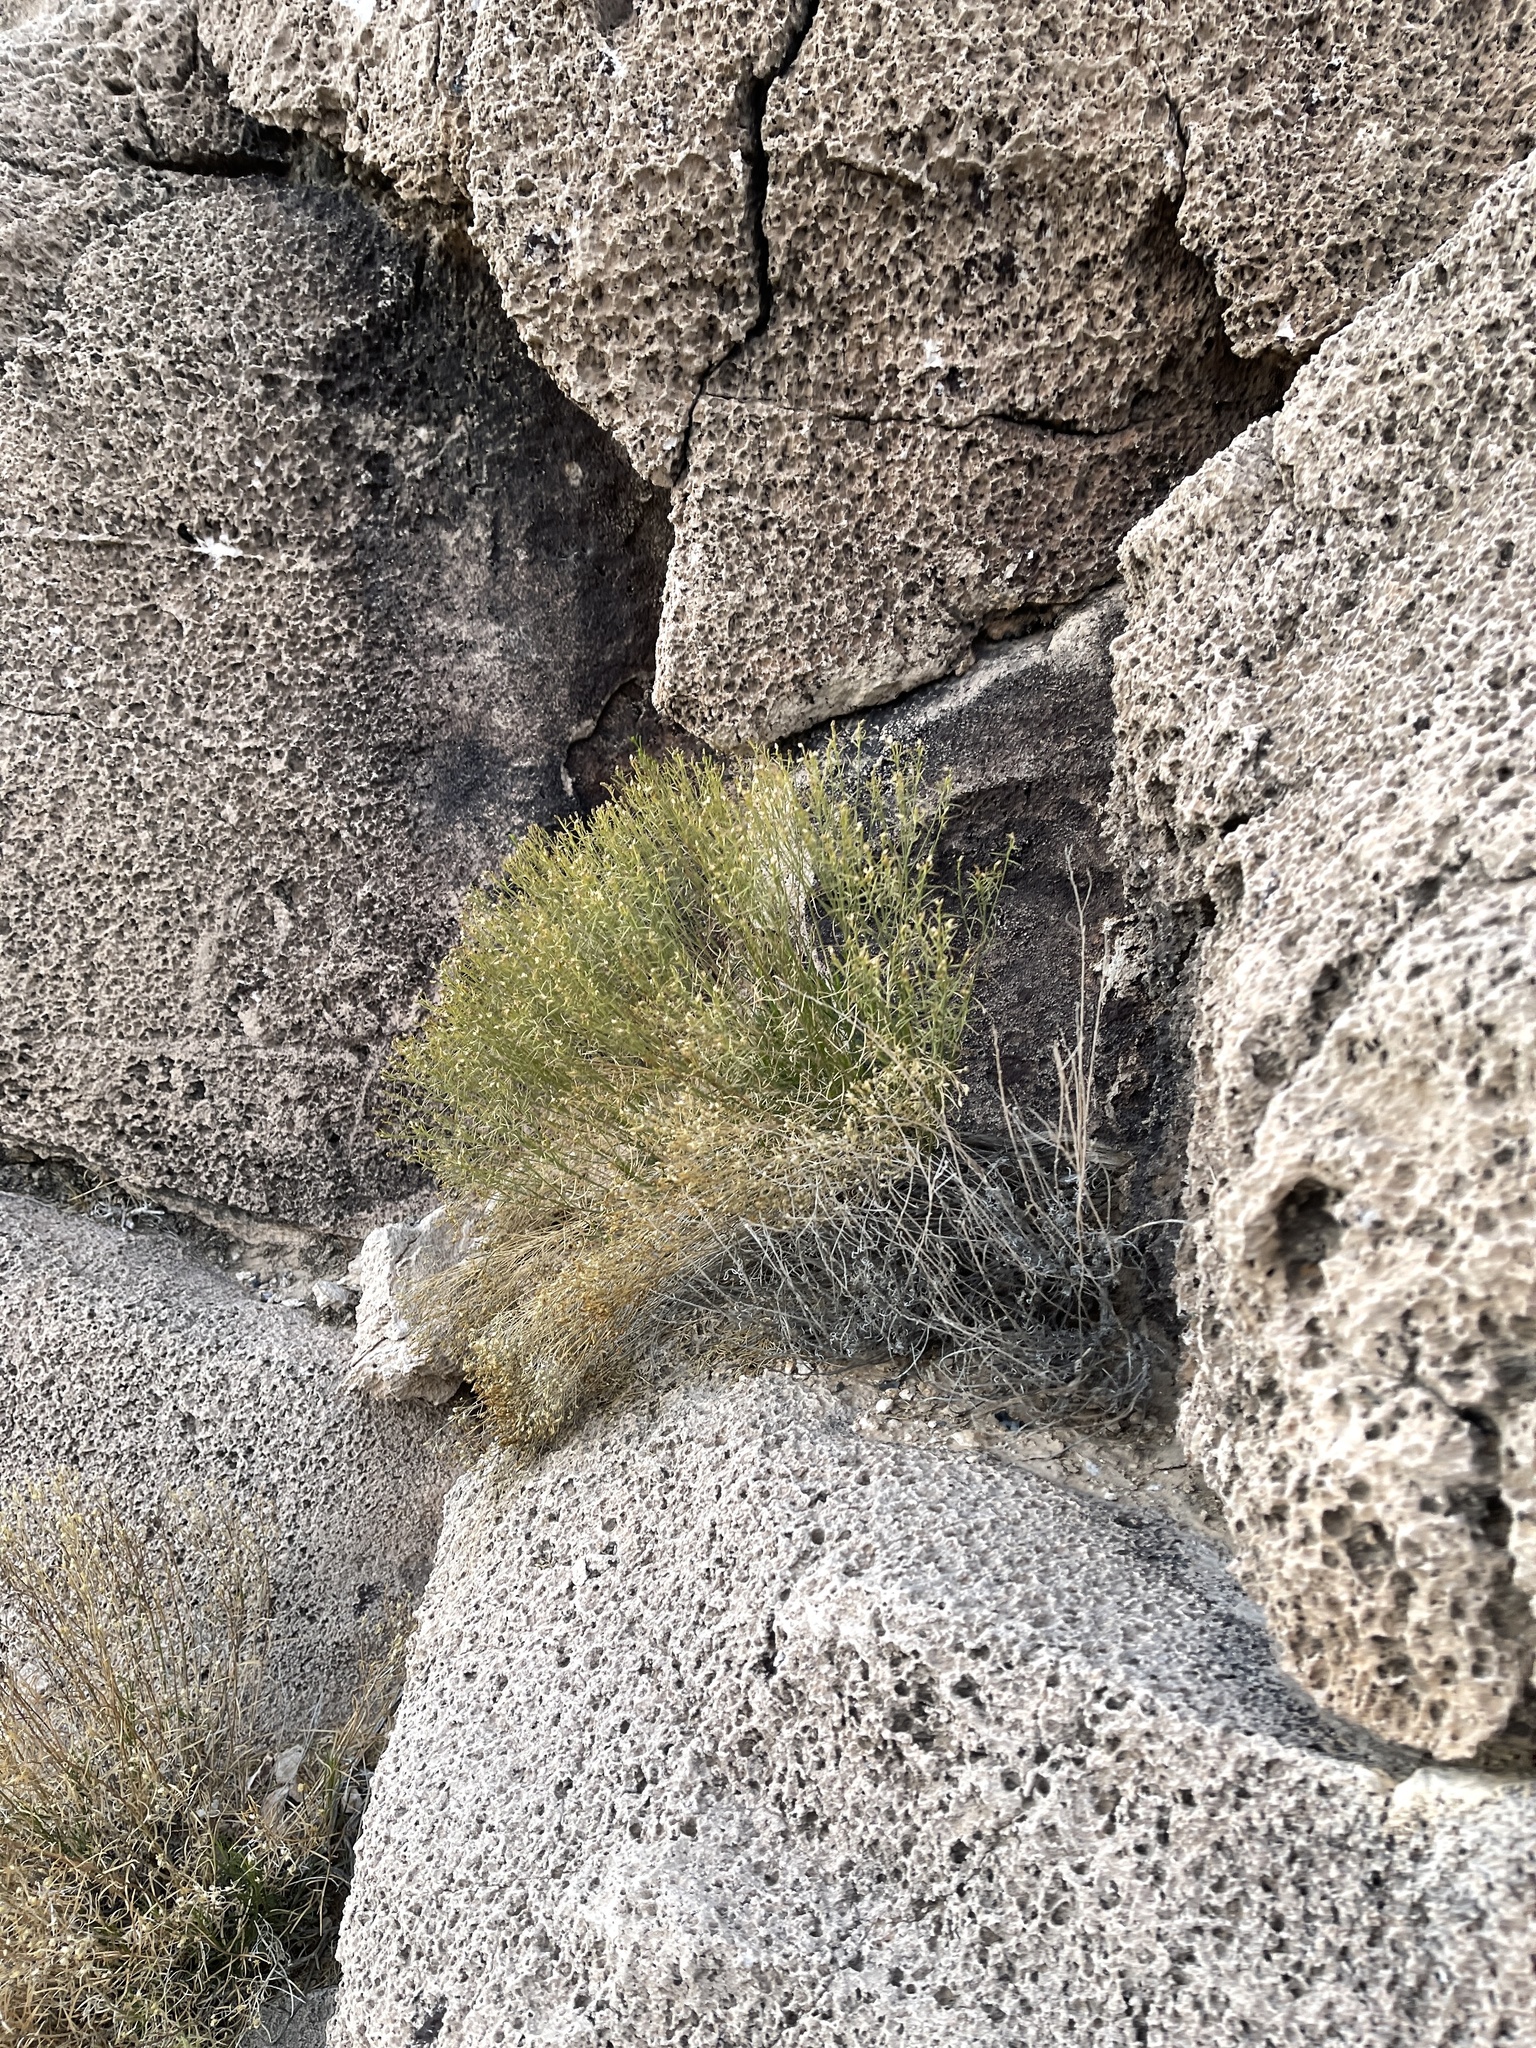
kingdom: Plantae
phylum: Tracheophyta
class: Magnoliopsida
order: Asterales
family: Asteraceae
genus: Gutierrezia
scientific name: Gutierrezia sarothrae
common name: Broom snakeweed
